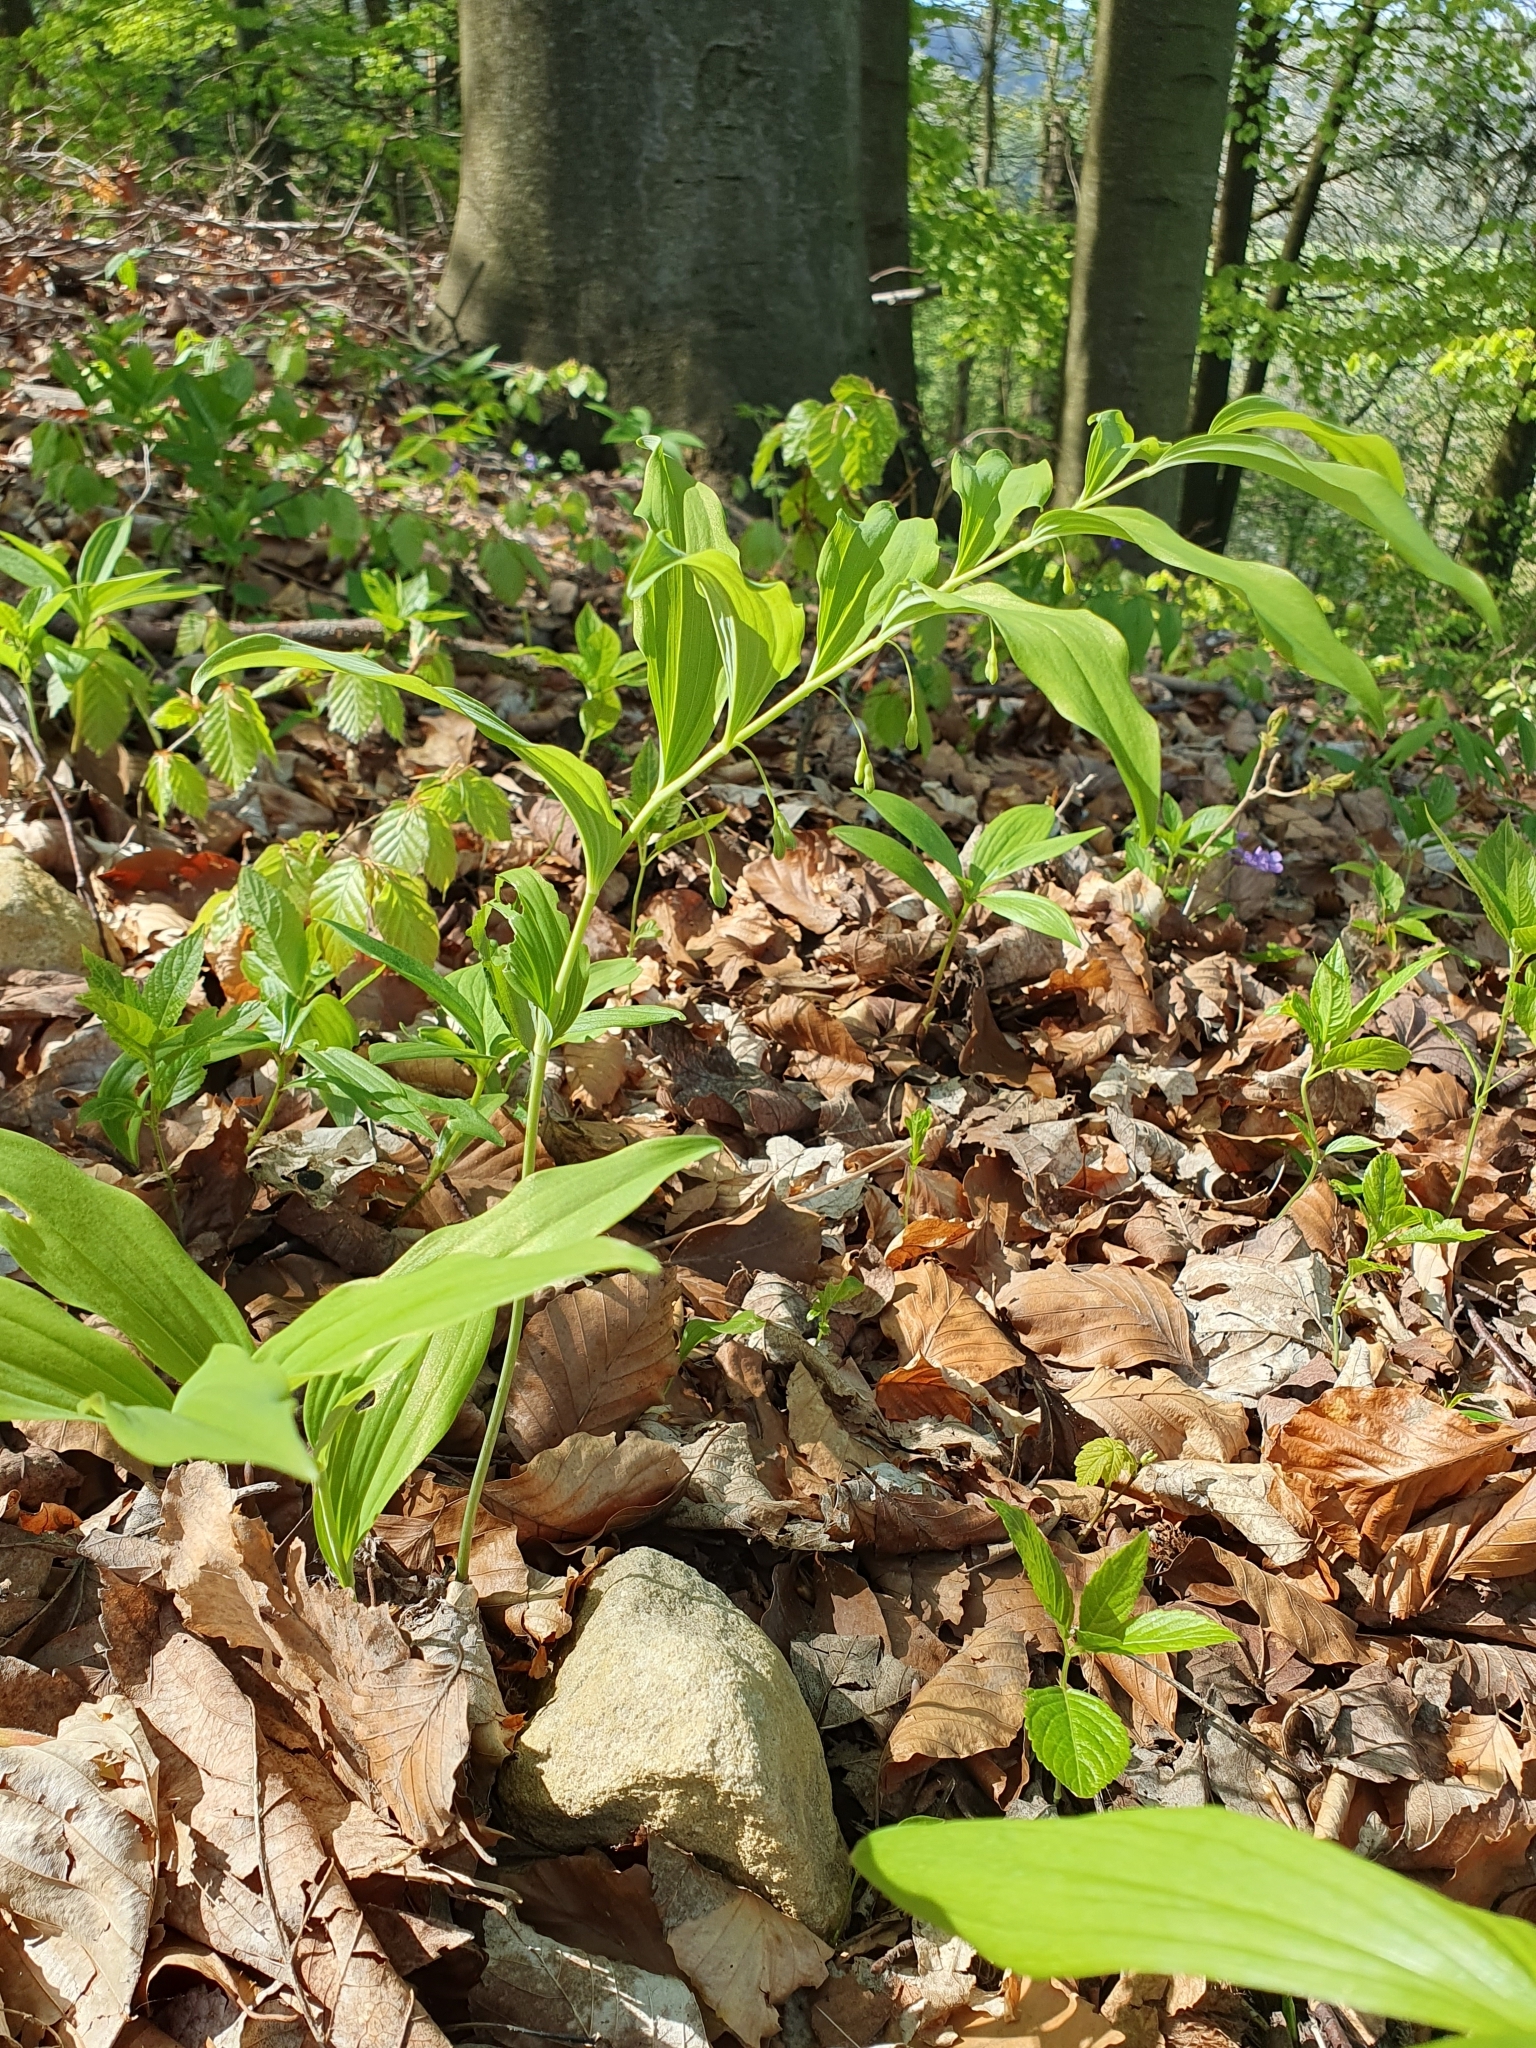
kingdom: Plantae
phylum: Tracheophyta
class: Liliopsida
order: Asparagales
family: Asparagaceae
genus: Polygonatum
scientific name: Polygonatum multiflorum
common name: Solomon's-seal
